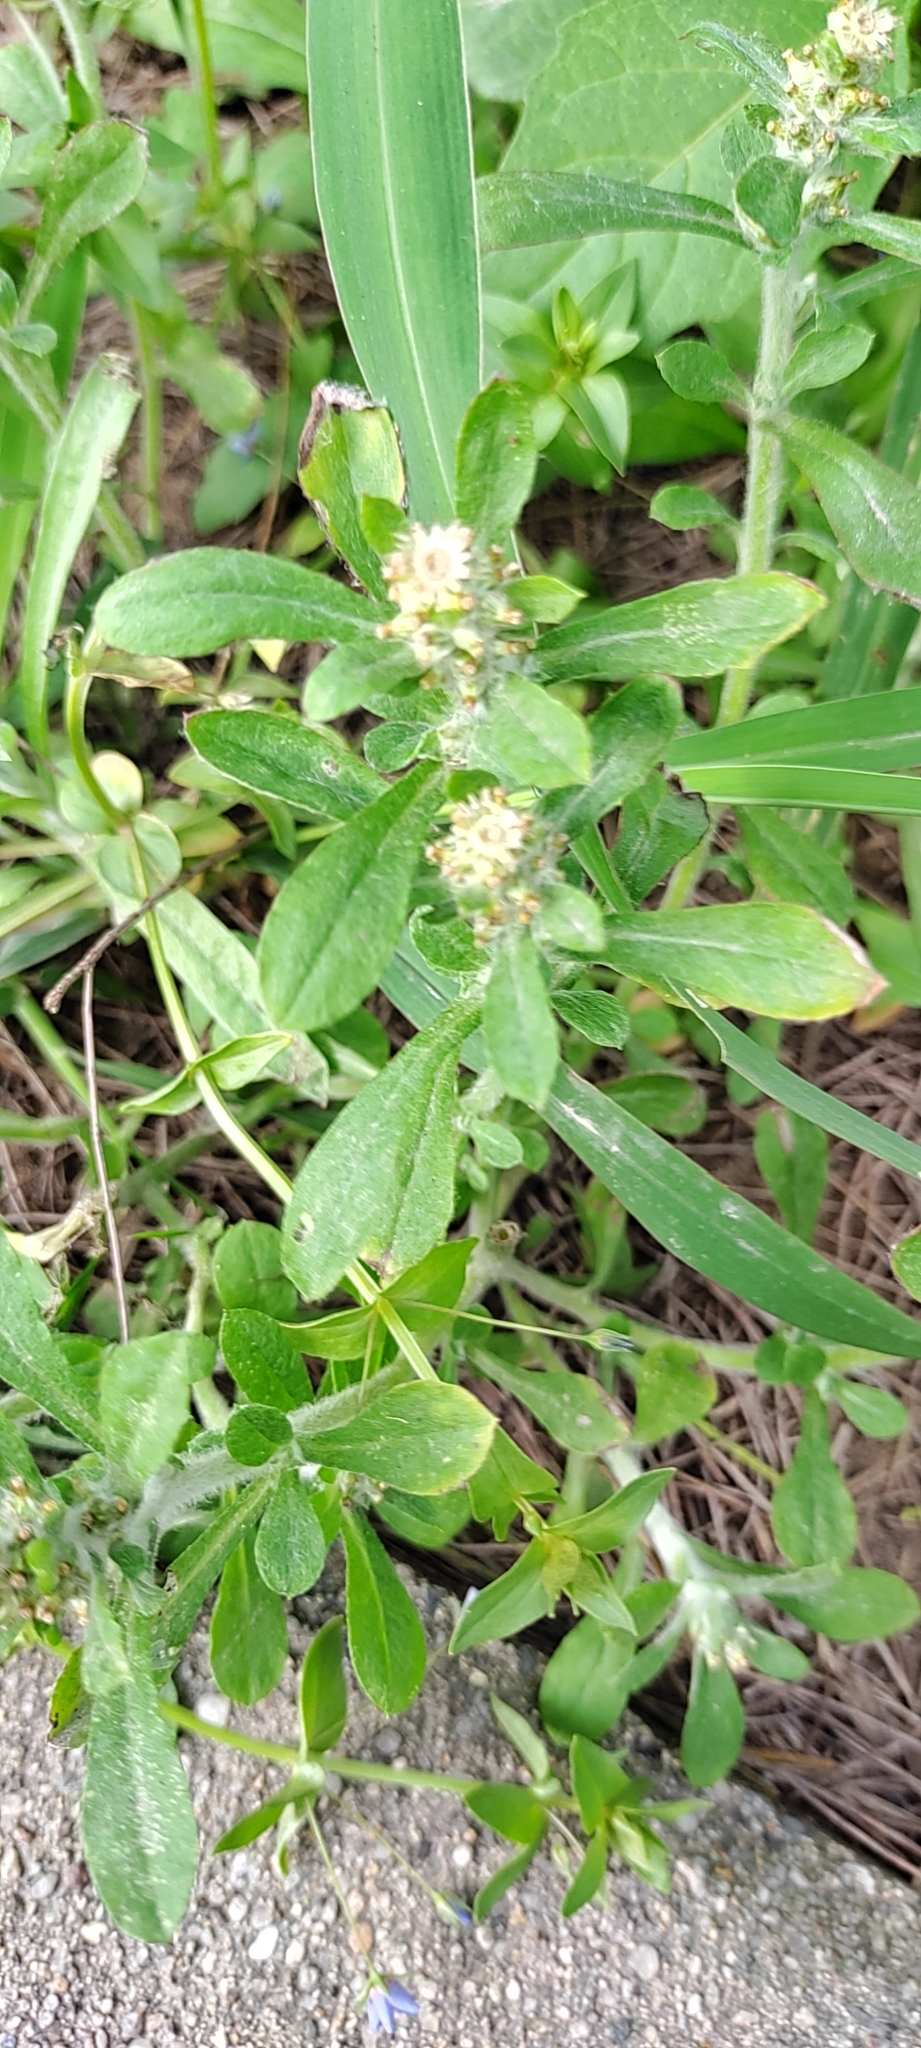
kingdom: Plantae
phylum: Tracheophyta
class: Magnoliopsida
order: Asterales
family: Asteraceae
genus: Gamochaeta
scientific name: Gamochaeta purpurea
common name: Purple cudweed
